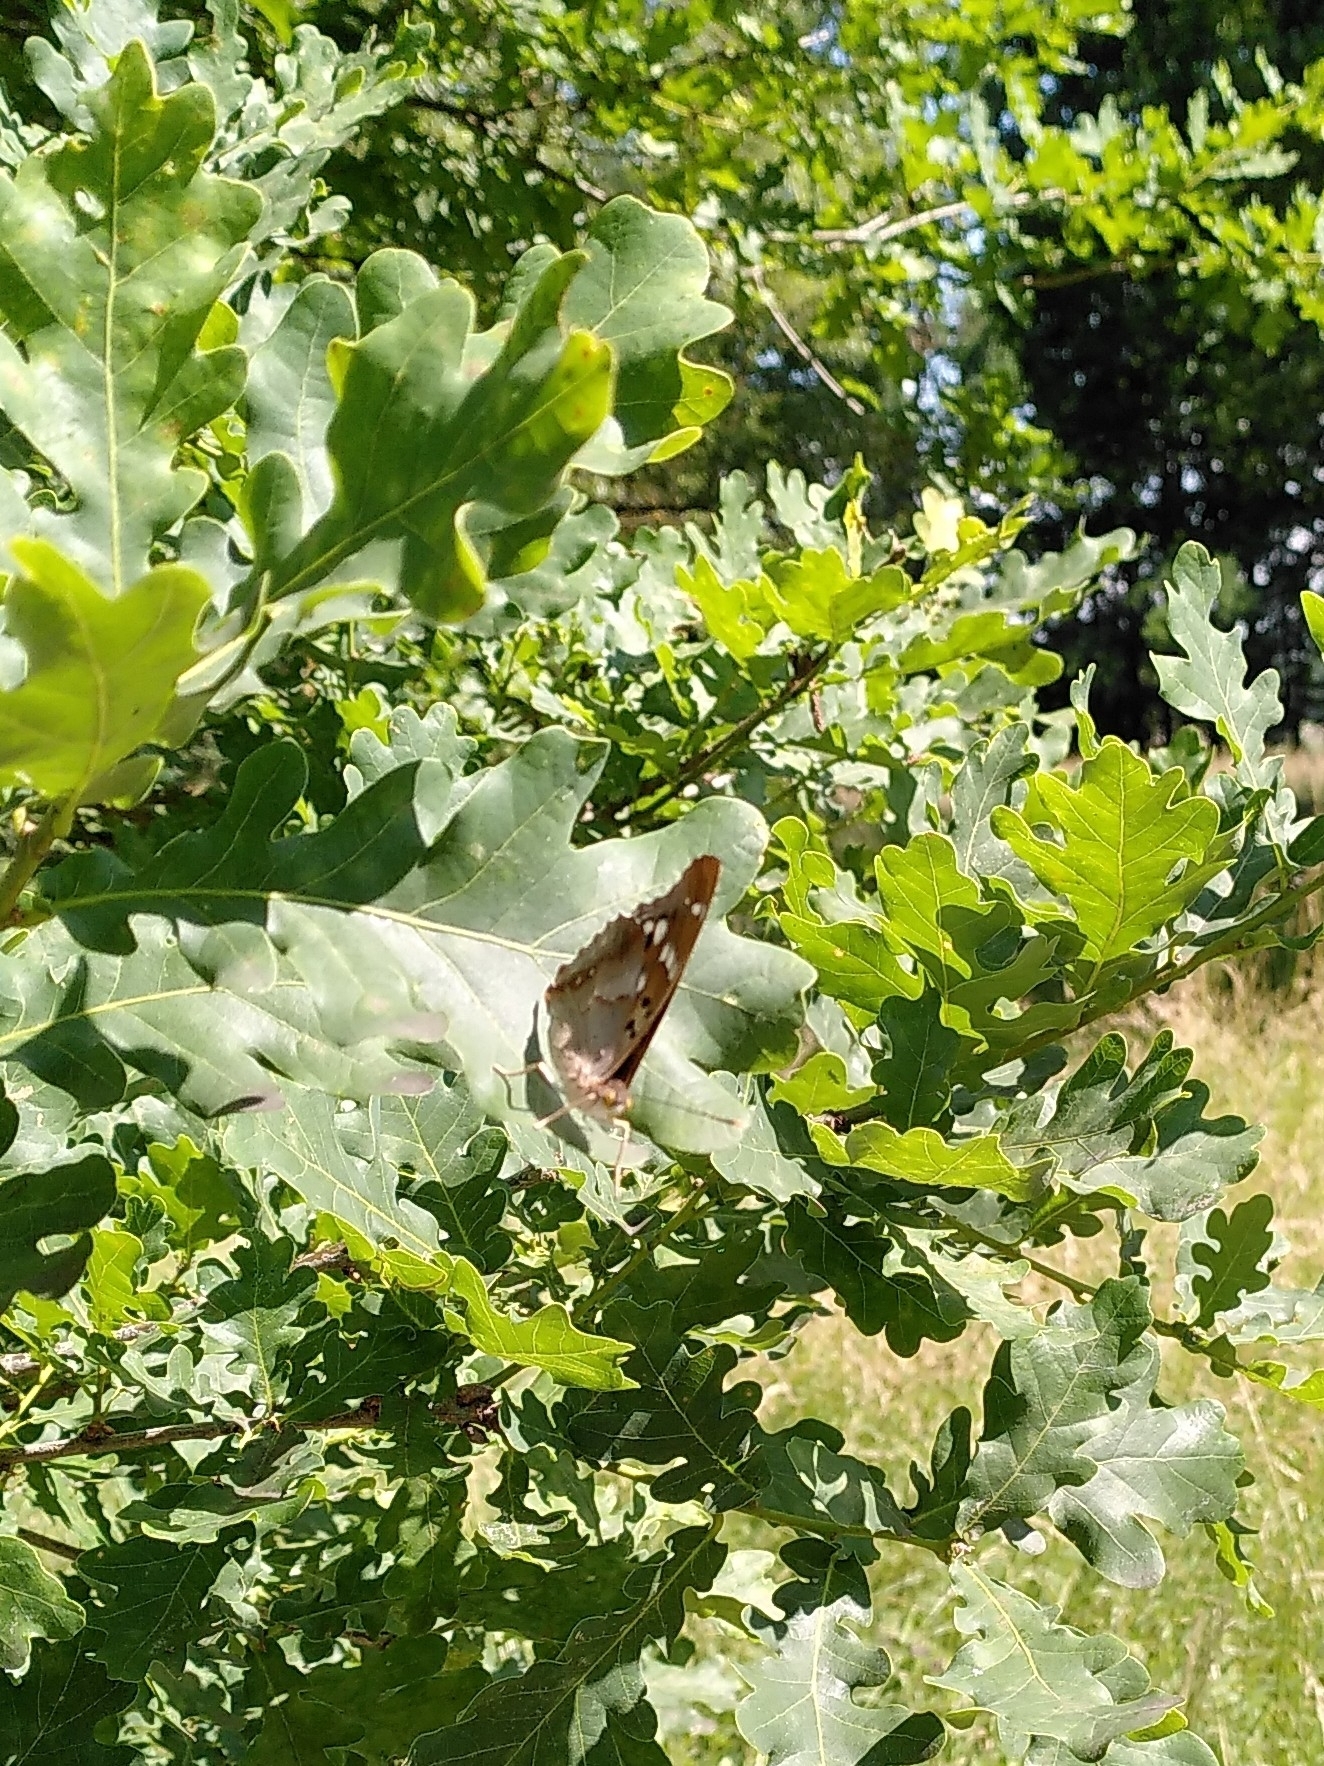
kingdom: Animalia
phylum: Arthropoda
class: Insecta
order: Lepidoptera
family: Nymphalidae
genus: Apatura
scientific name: Apatura ilia
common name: Lesser purple emperor
